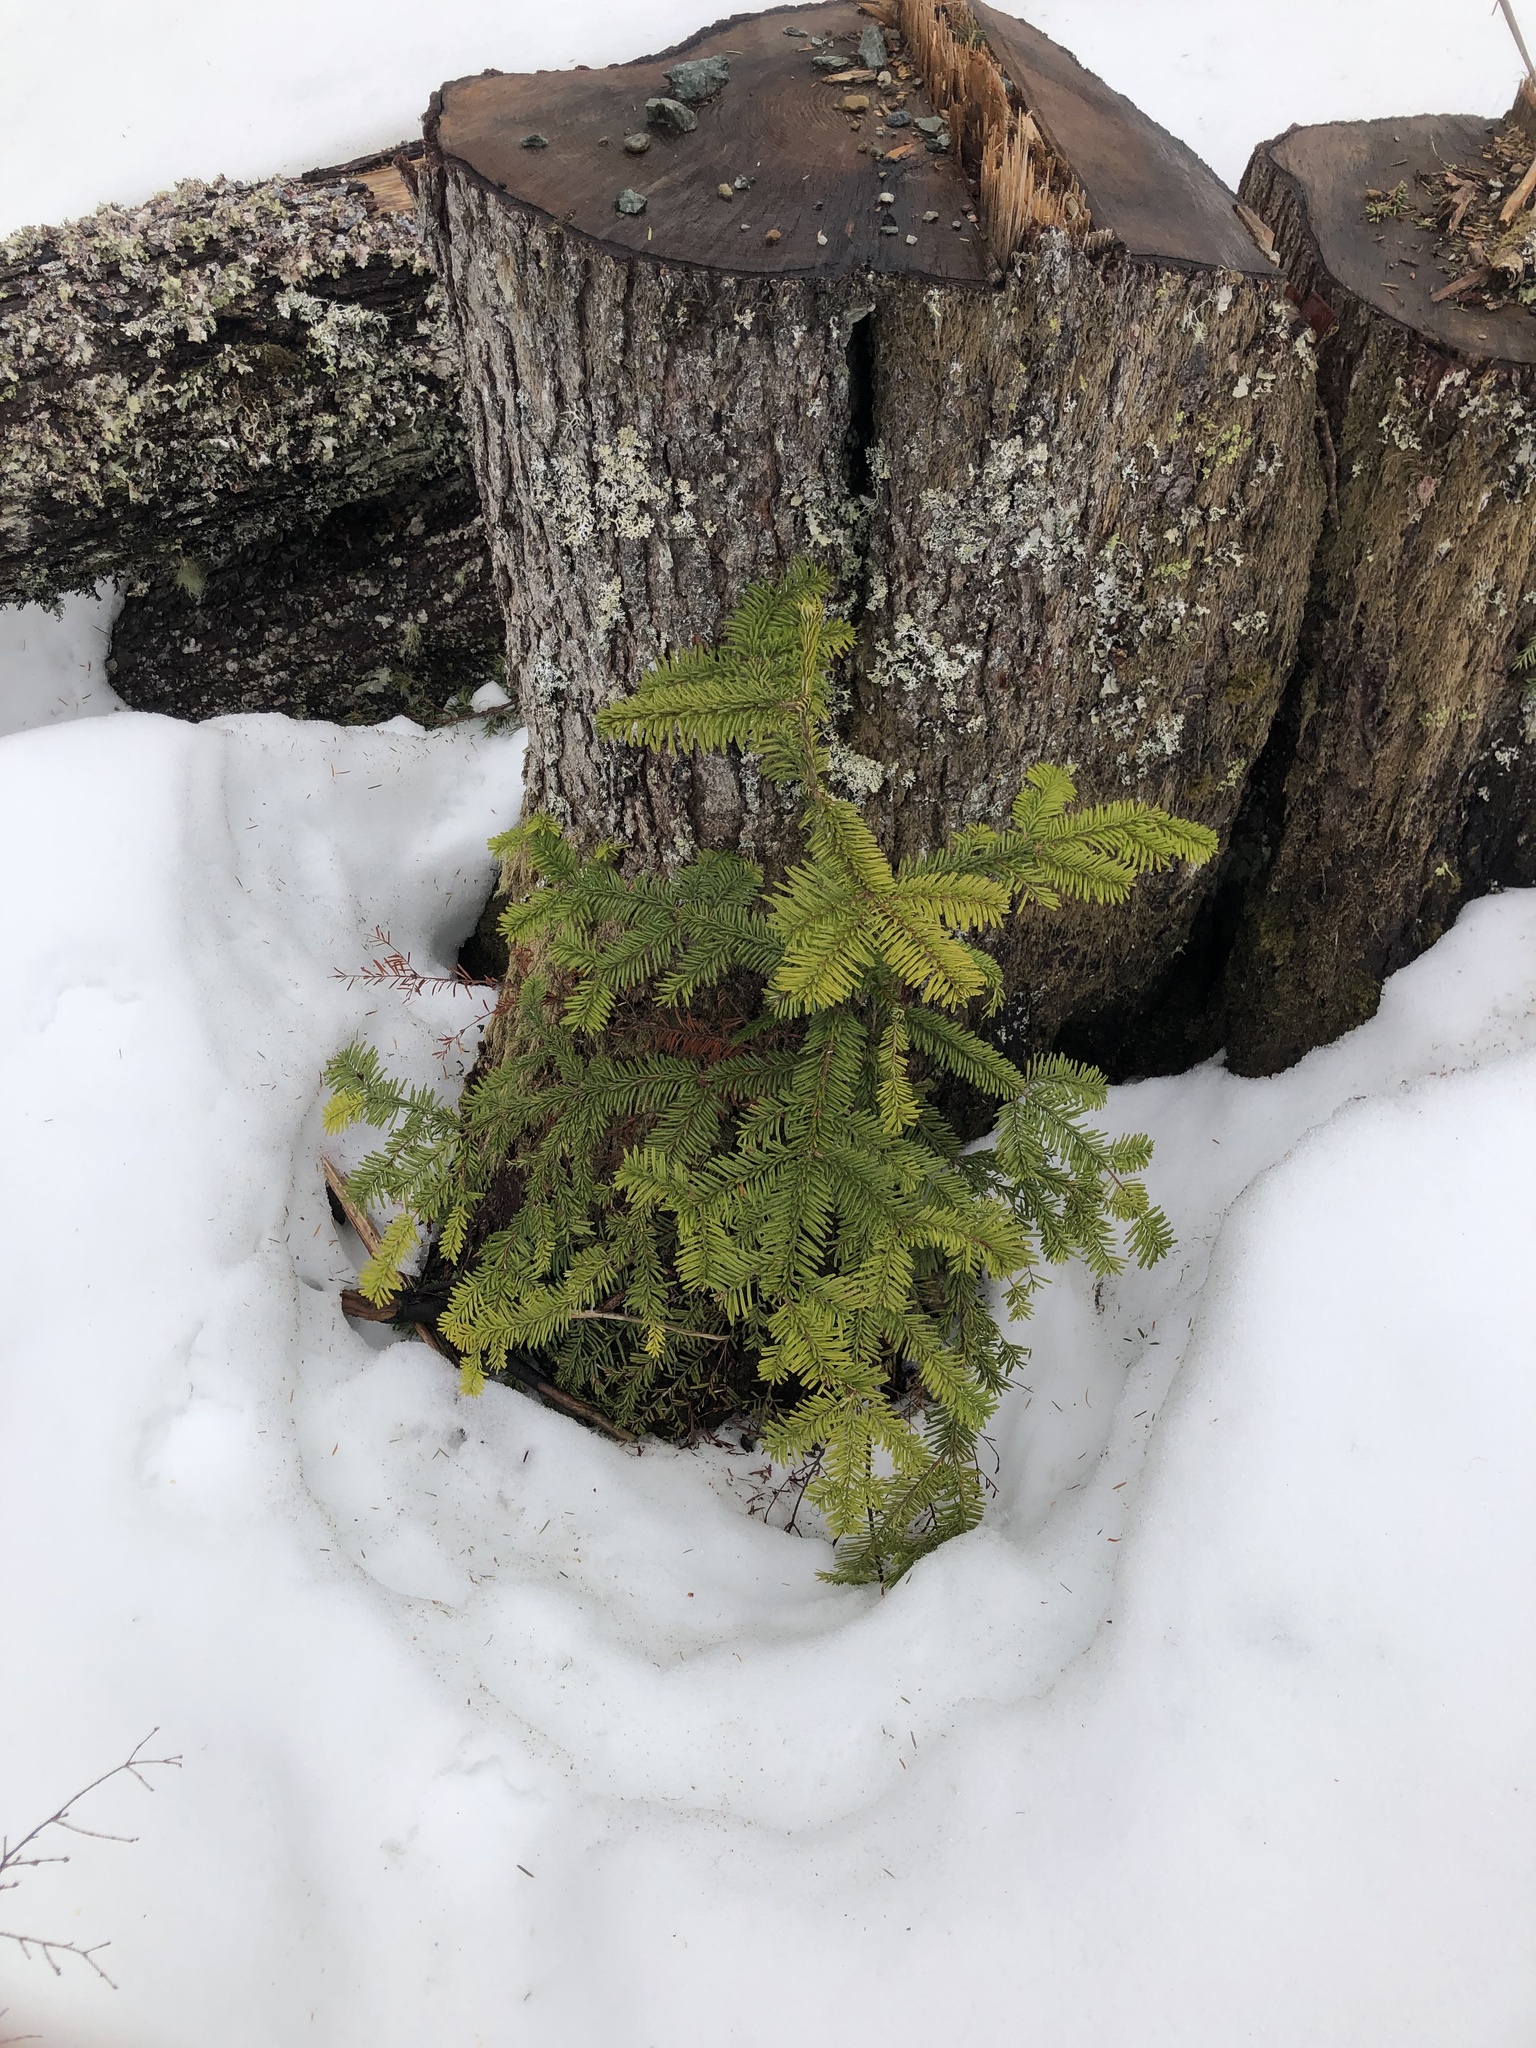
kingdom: Plantae
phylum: Tracheophyta
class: Pinopsida
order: Pinales
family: Pinaceae
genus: Abies
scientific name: Abies amabilis
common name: Pacific silver fir
